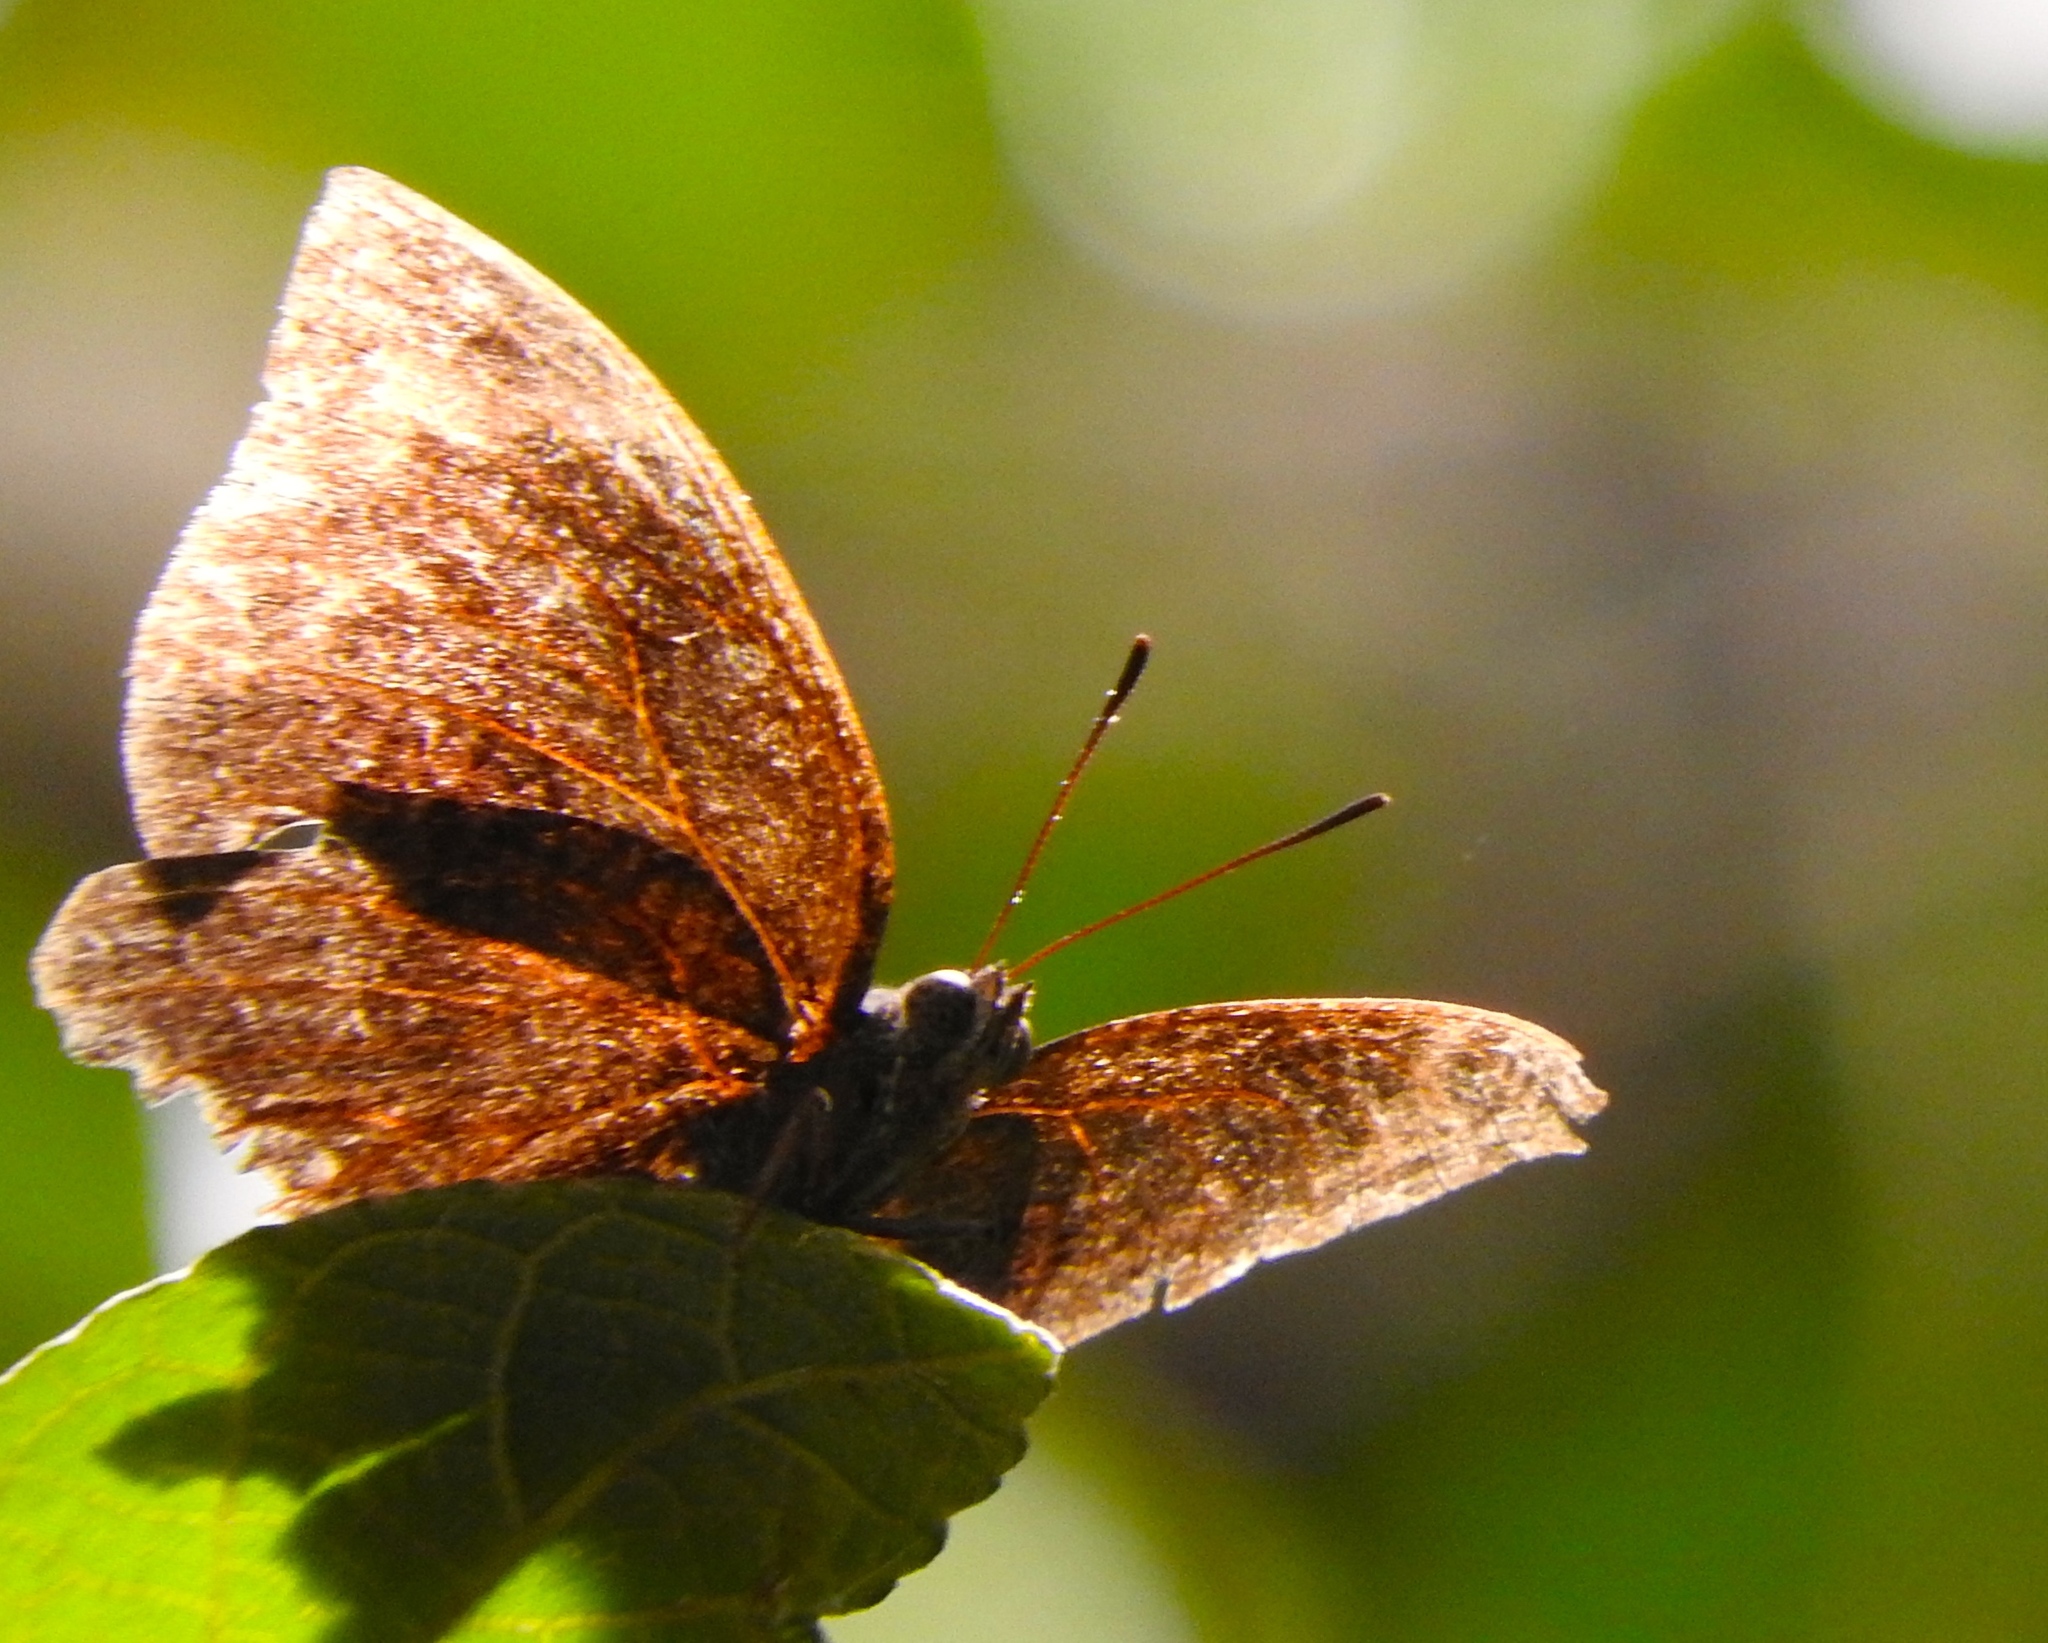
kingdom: Animalia
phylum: Arthropoda
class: Insecta
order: Lepidoptera
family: Nymphalidae
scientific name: Nymphalidae
